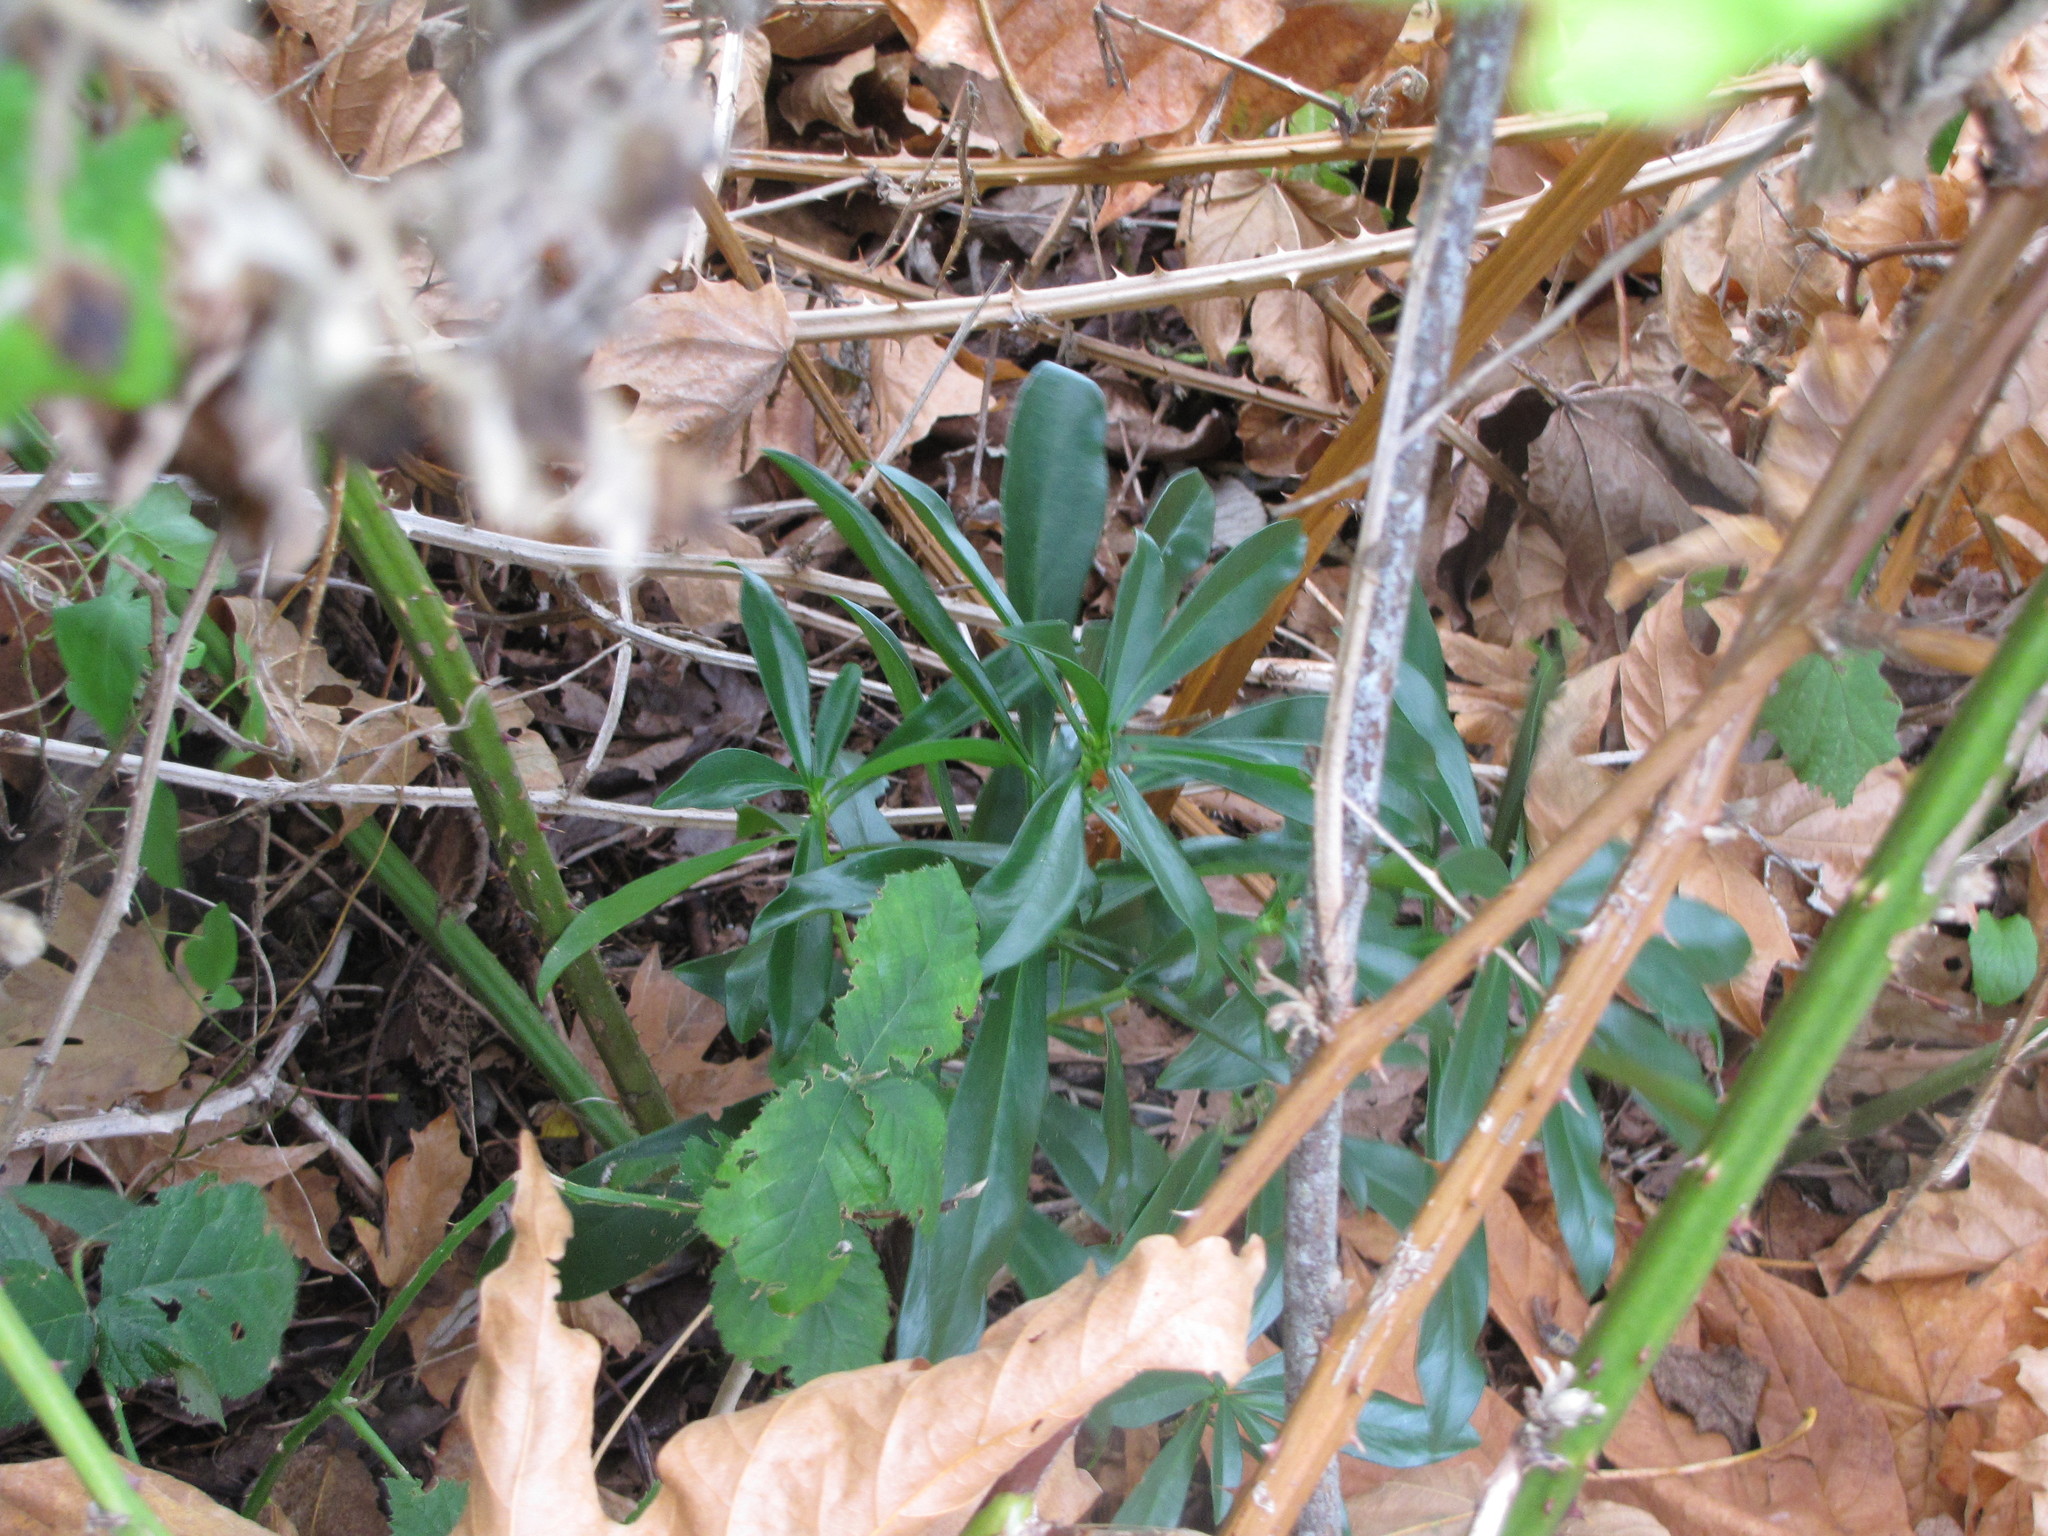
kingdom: Plantae
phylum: Tracheophyta
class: Magnoliopsida
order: Malvales
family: Thymelaeaceae
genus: Daphne
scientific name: Daphne laureola
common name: Spurge-laurel
